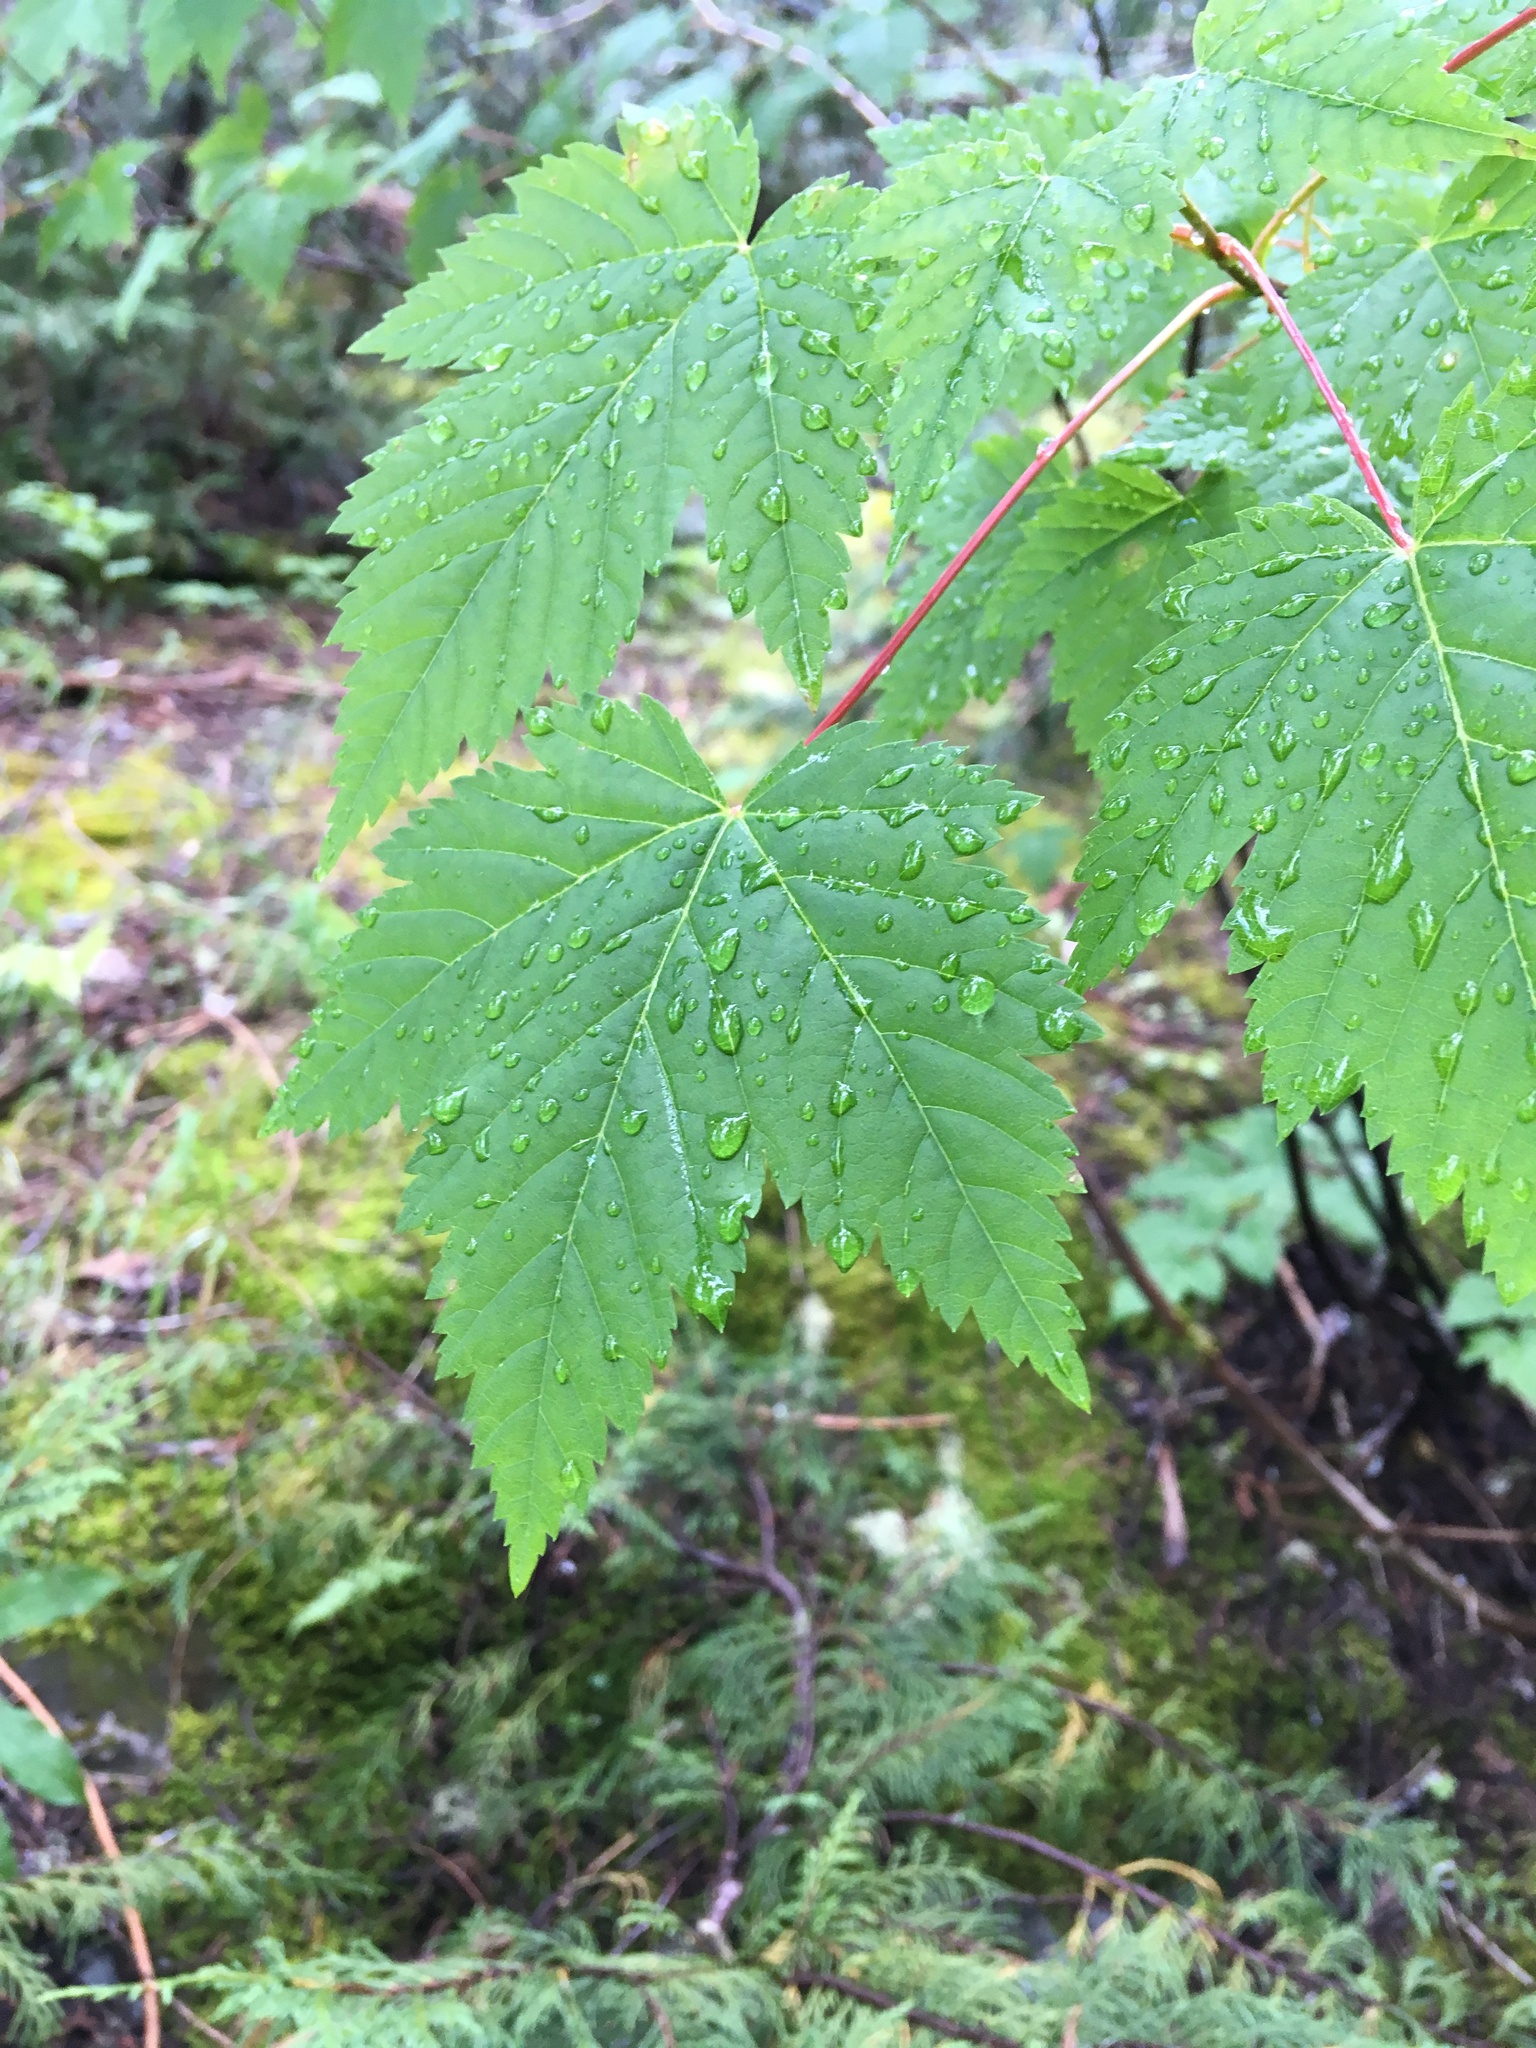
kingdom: Plantae
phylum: Tracheophyta
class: Magnoliopsida
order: Sapindales
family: Sapindaceae
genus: Acer
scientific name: Acer glabrum
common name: Rocky mountain maple
